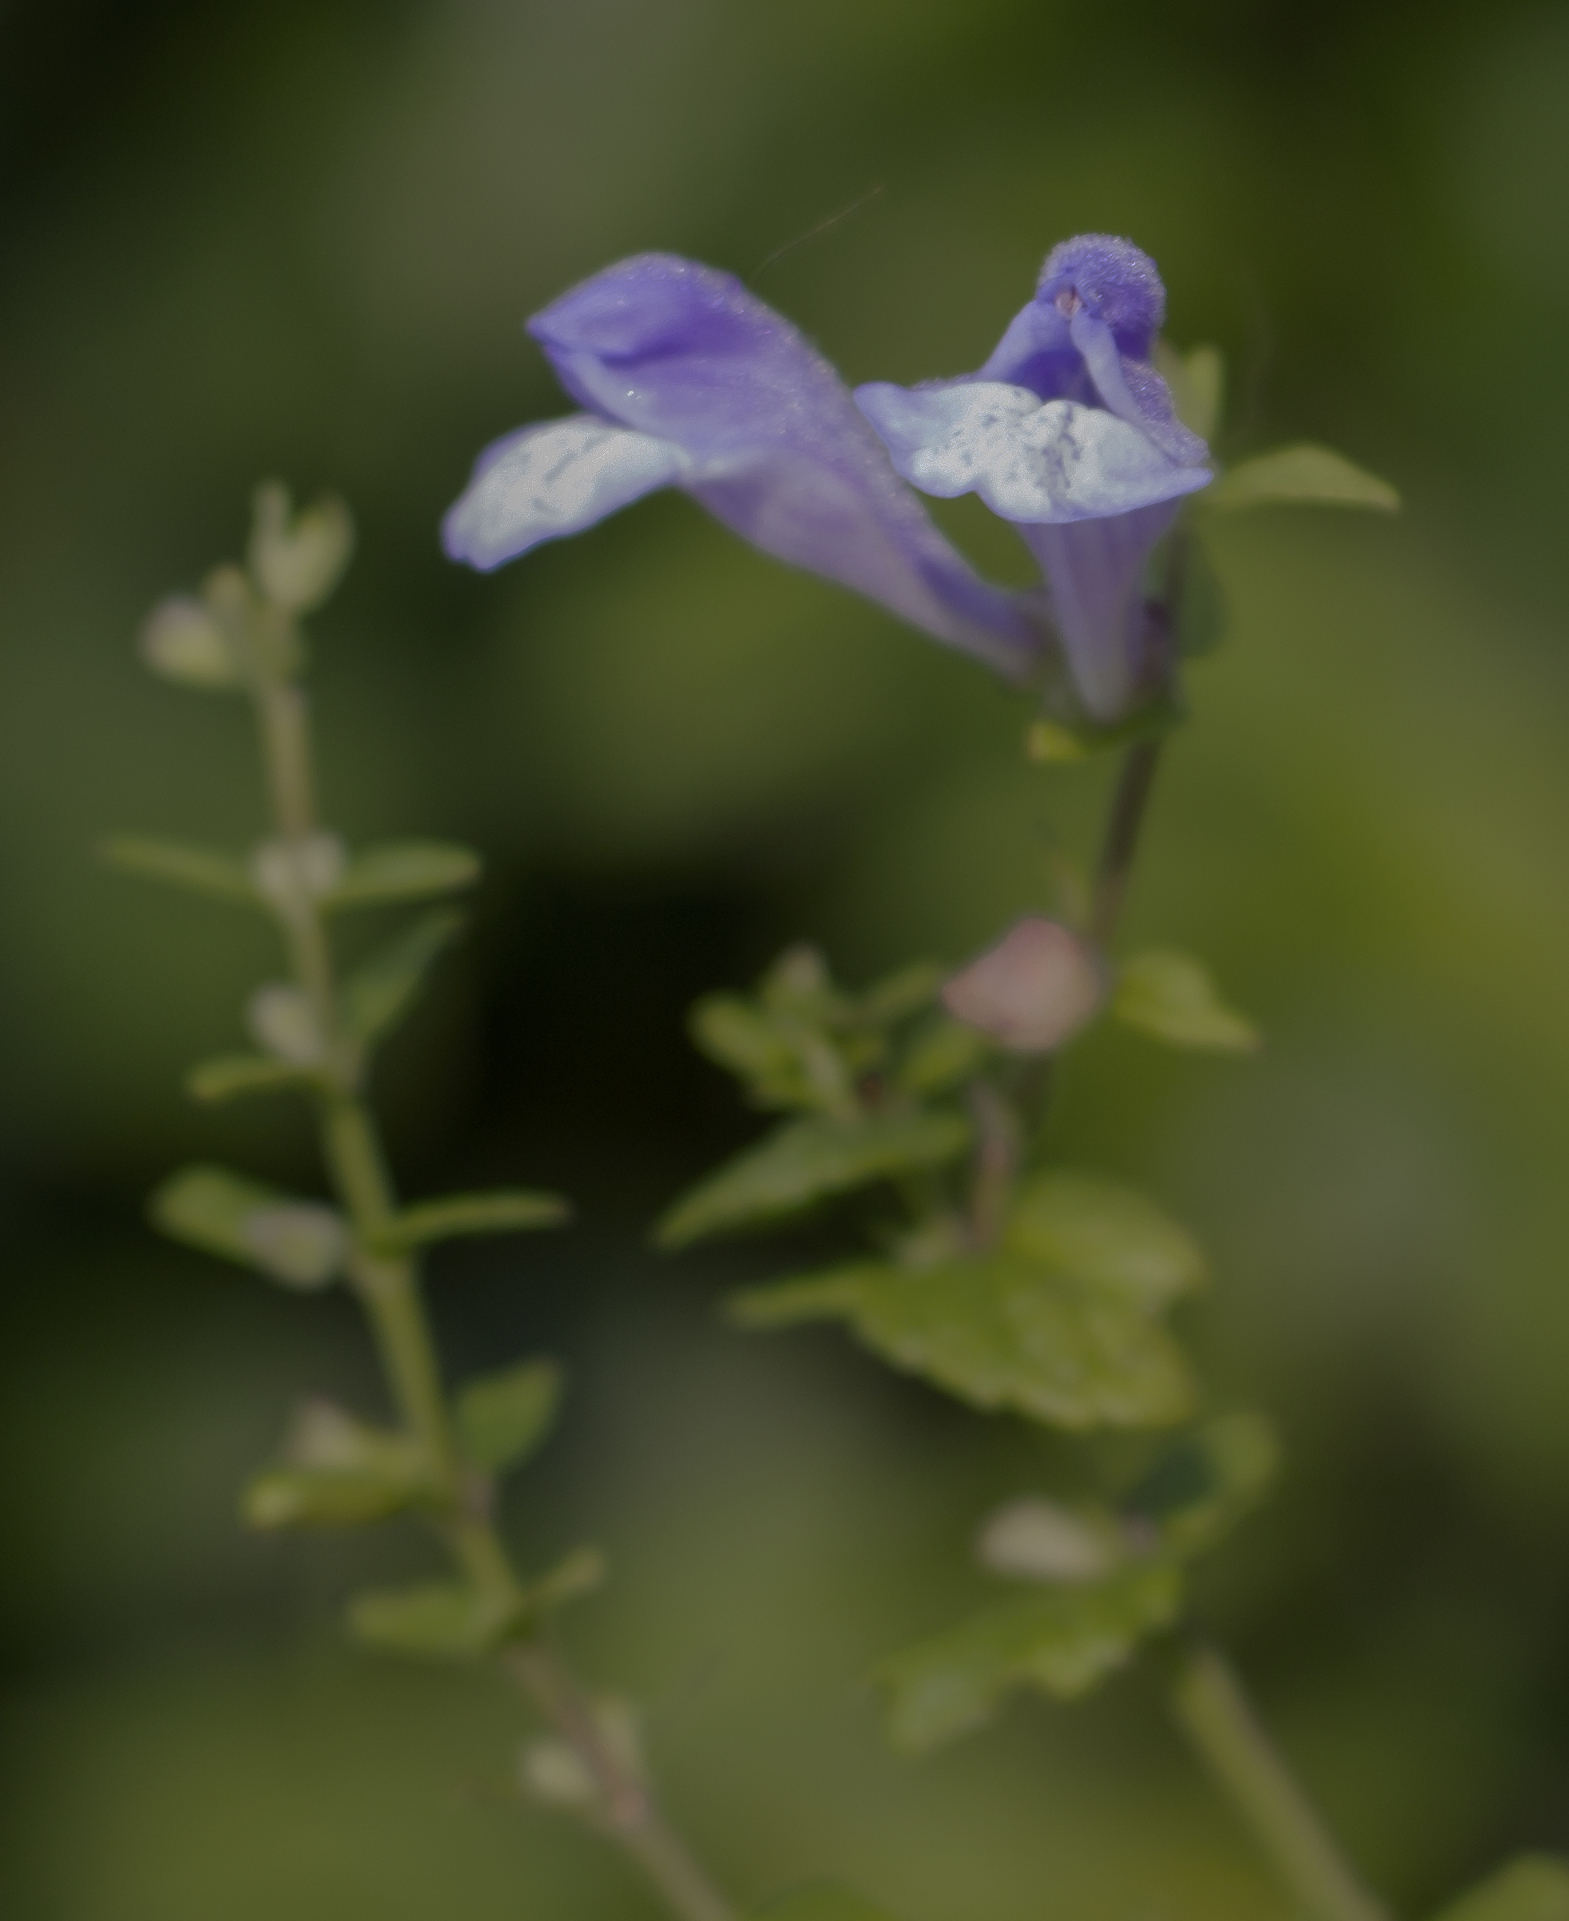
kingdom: Plantae
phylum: Tracheophyta
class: Magnoliopsida
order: Lamiales
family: Lamiaceae
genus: Scutellaria
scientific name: Scutellaria galericulata
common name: Skullcap
